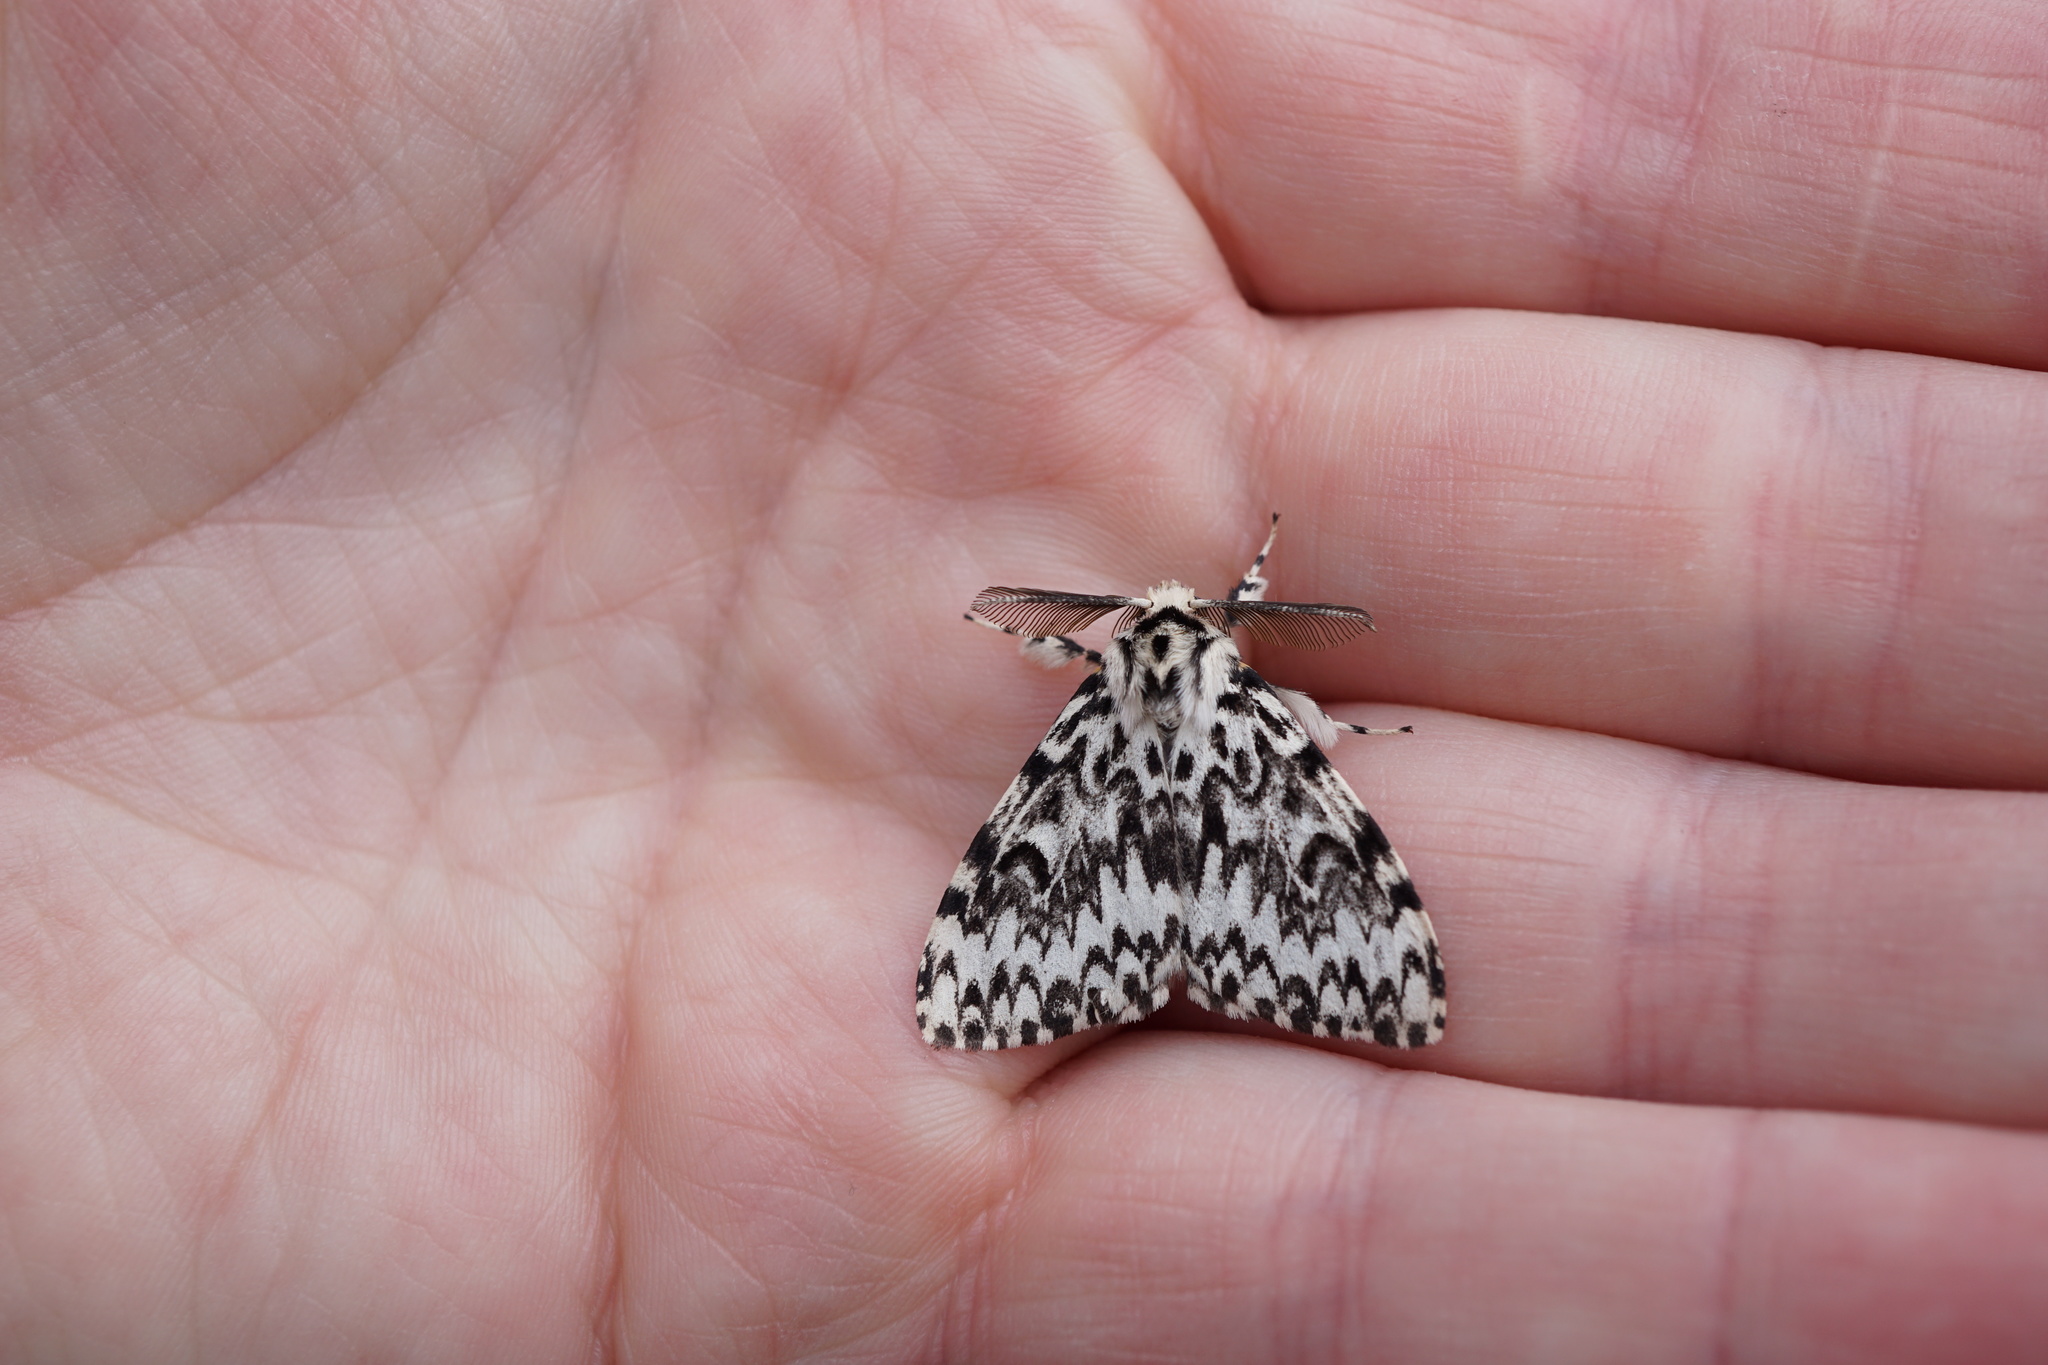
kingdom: Animalia
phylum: Arthropoda
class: Insecta
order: Lepidoptera
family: Erebidae
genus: Lymantria
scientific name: Lymantria monacha
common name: Black arches
